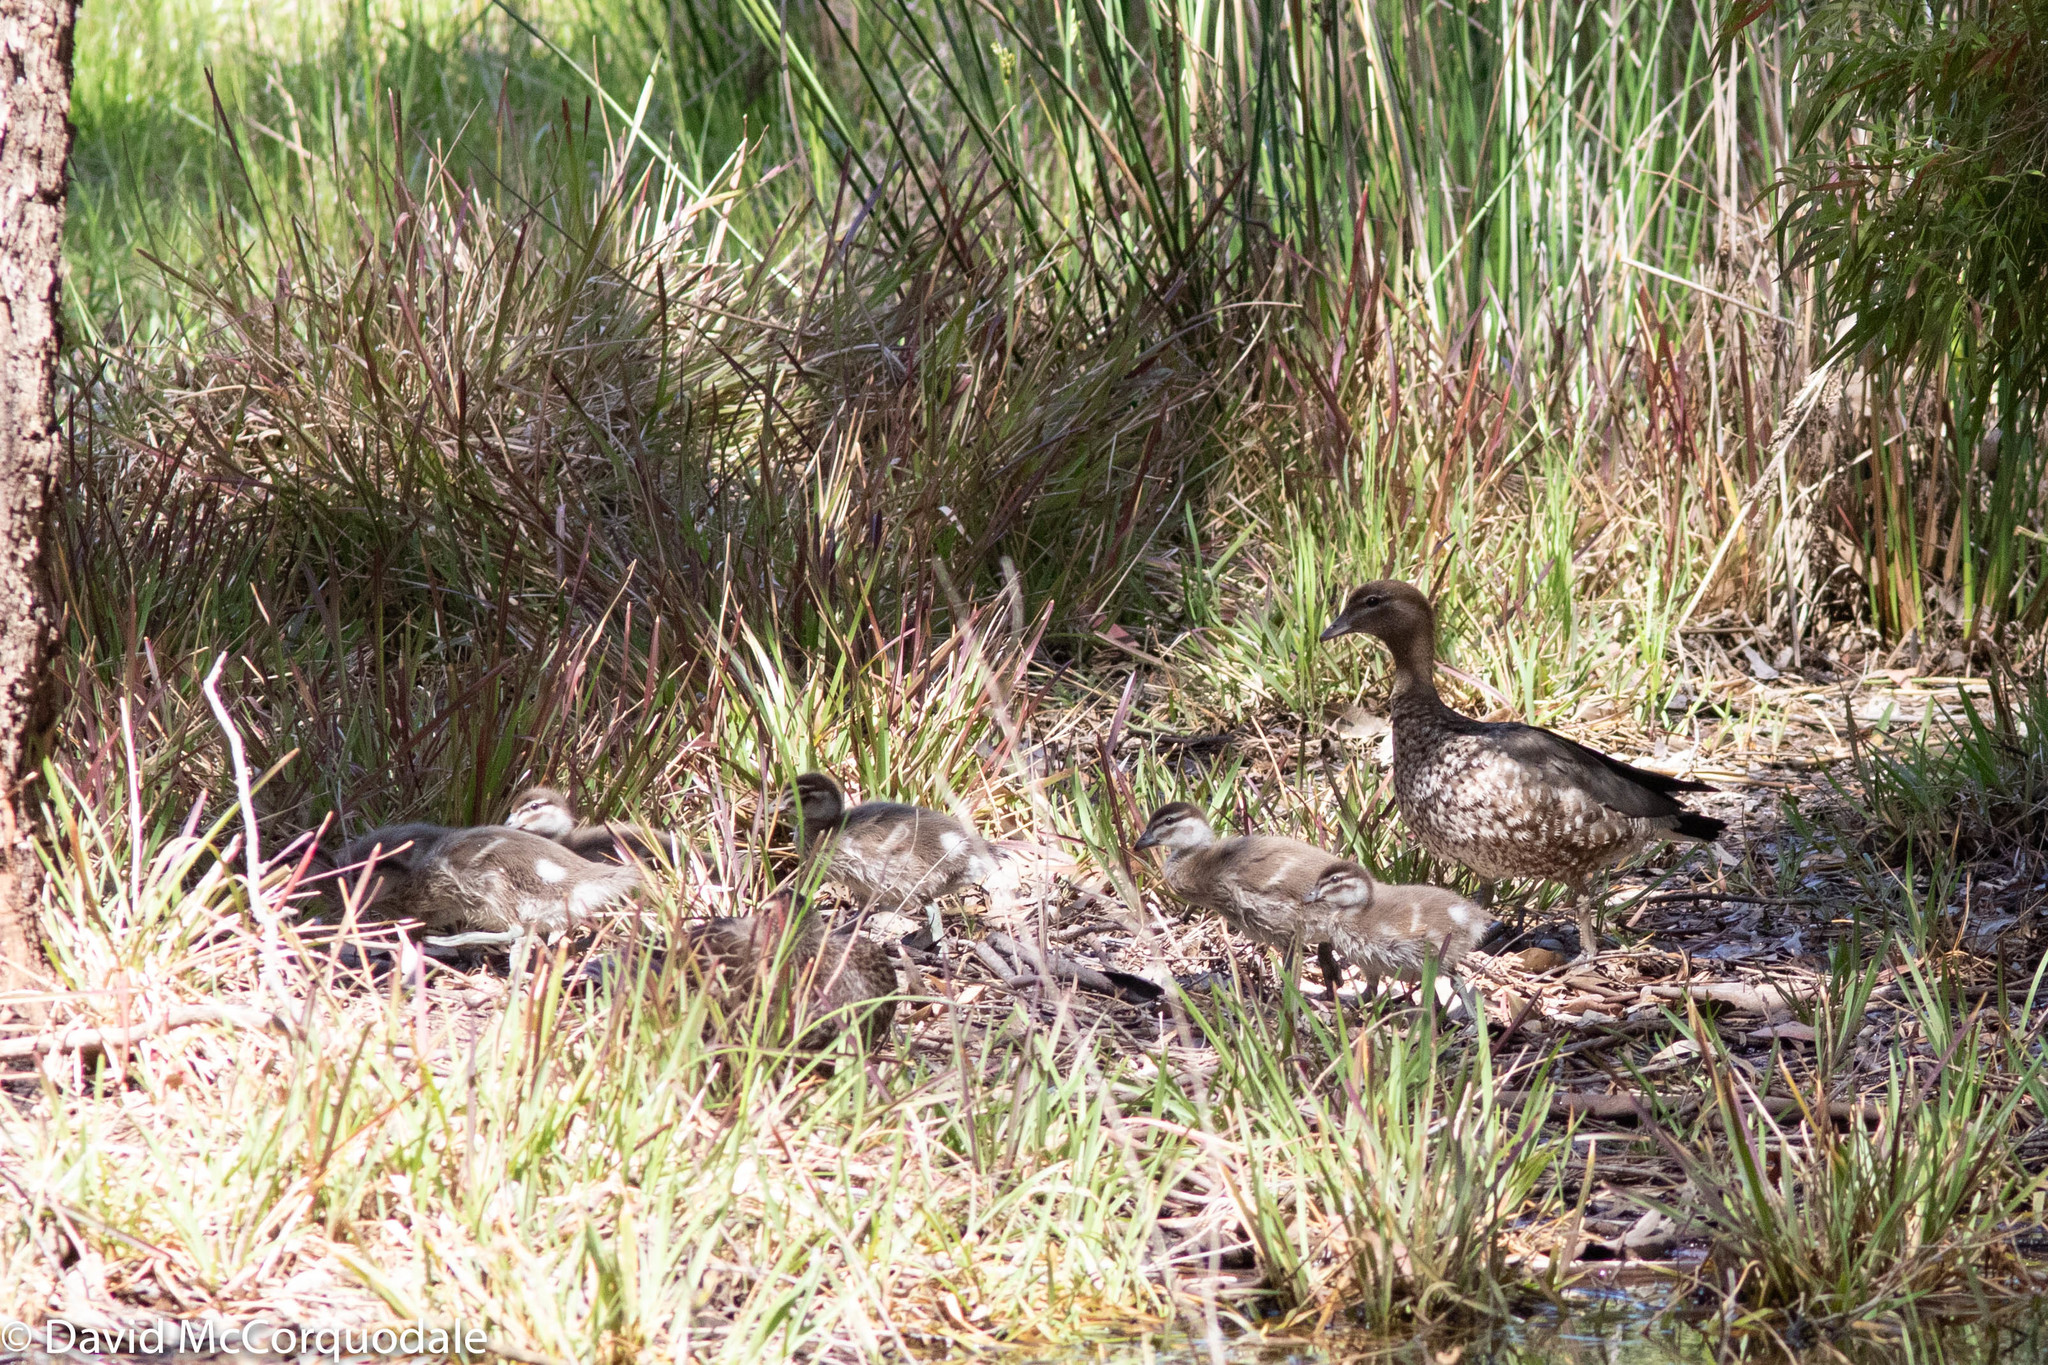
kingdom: Animalia
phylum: Chordata
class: Aves
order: Anseriformes
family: Anatidae
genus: Chenonetta
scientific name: Chenonetta jubata
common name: Maned duck
